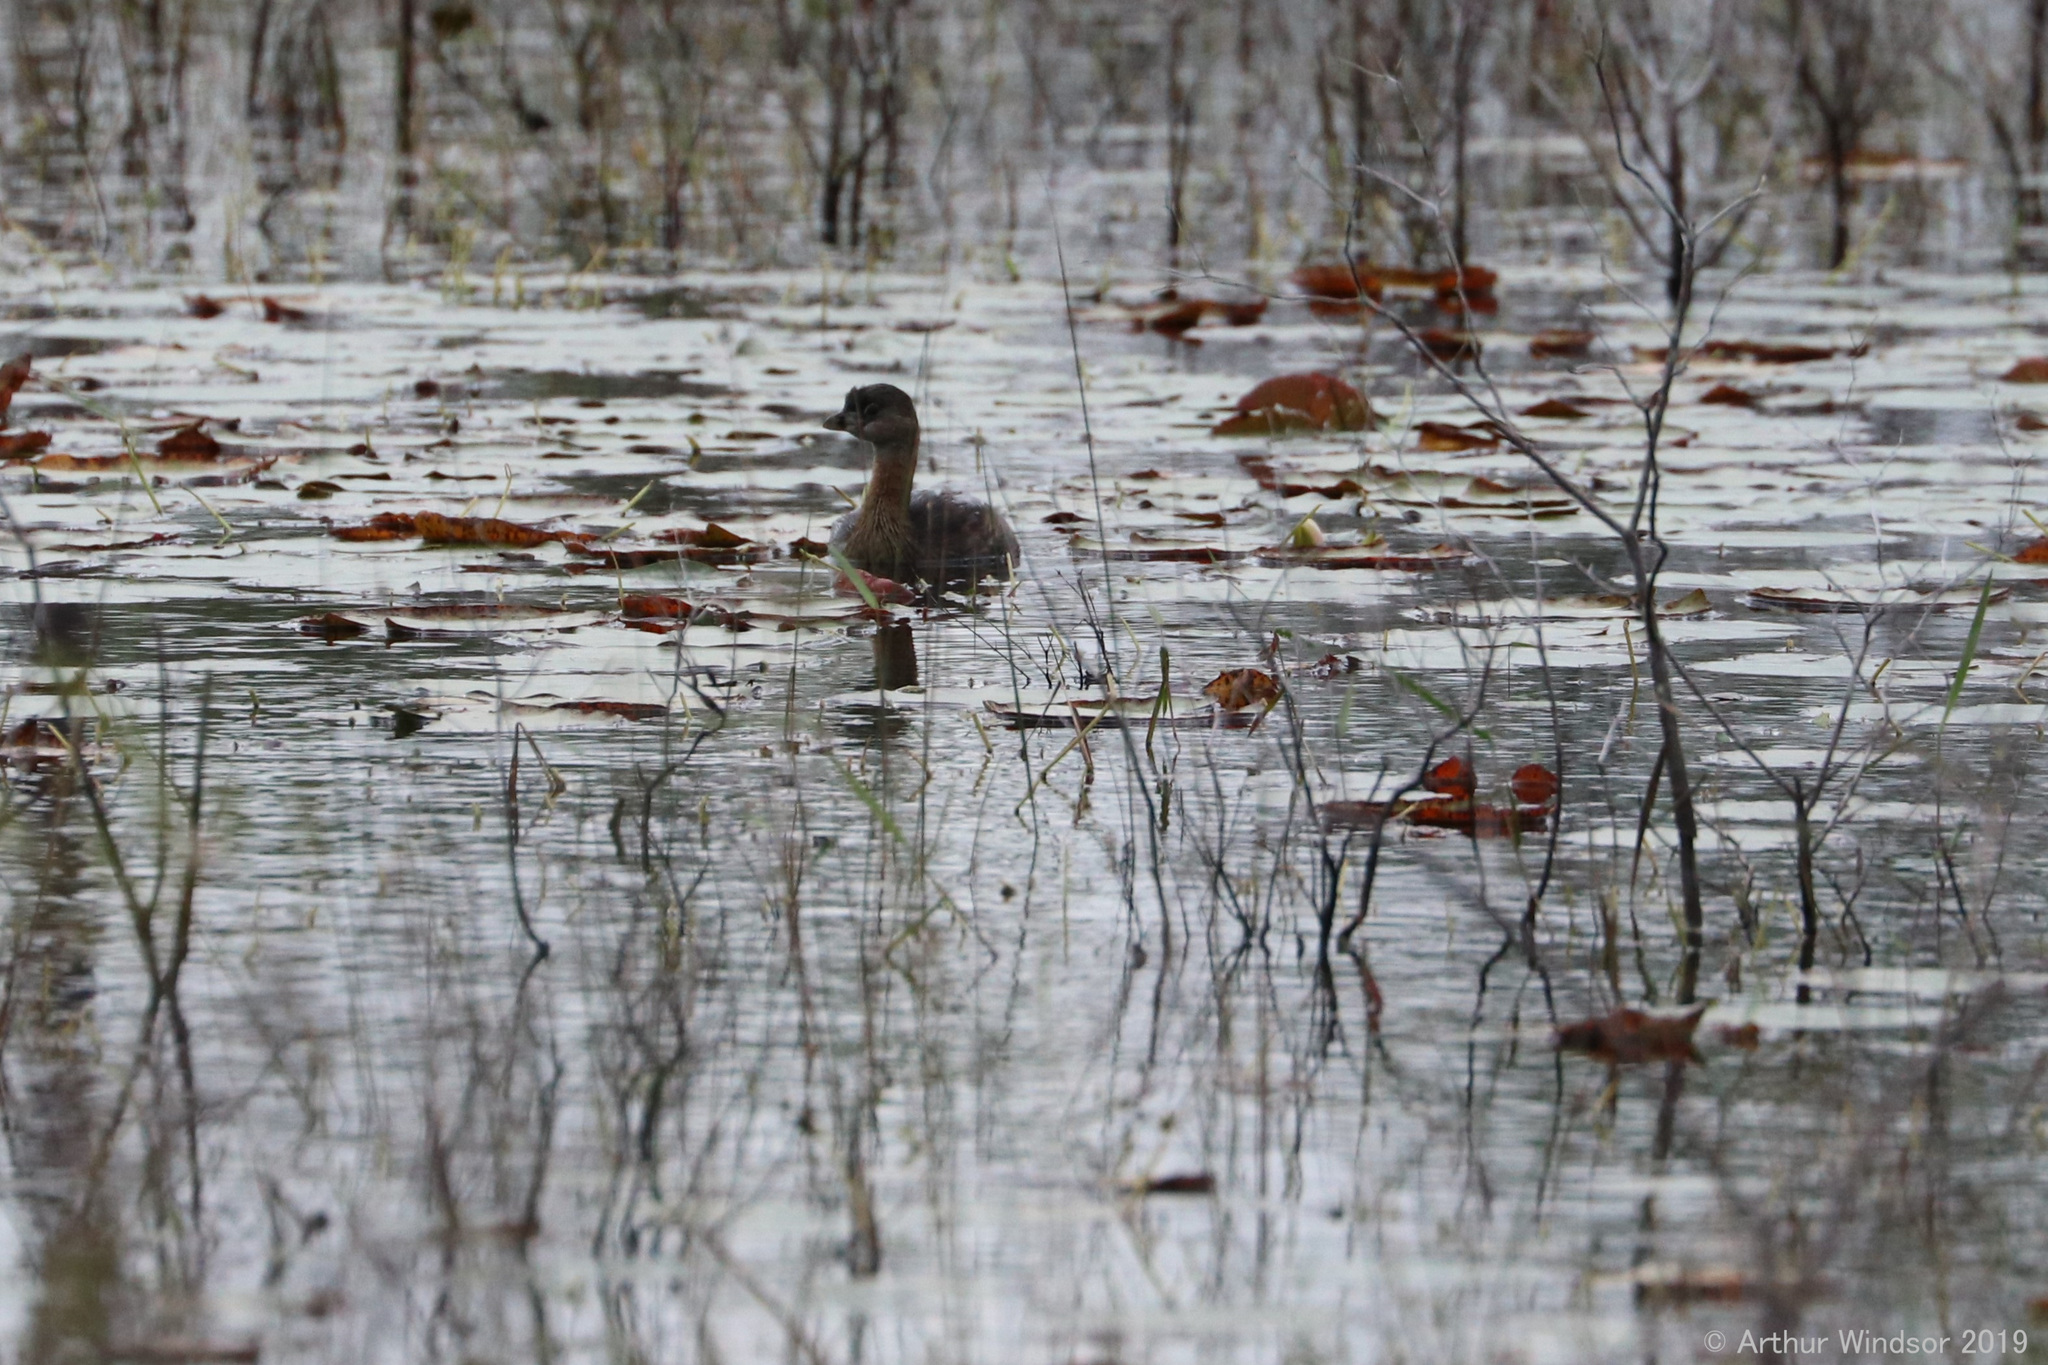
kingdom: Animalia
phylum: Chordata
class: Aves
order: Podicipediformes
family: Podicipedidae
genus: Podilymbus
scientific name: Podilymbus podiceps
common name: Pied-billed grebe
